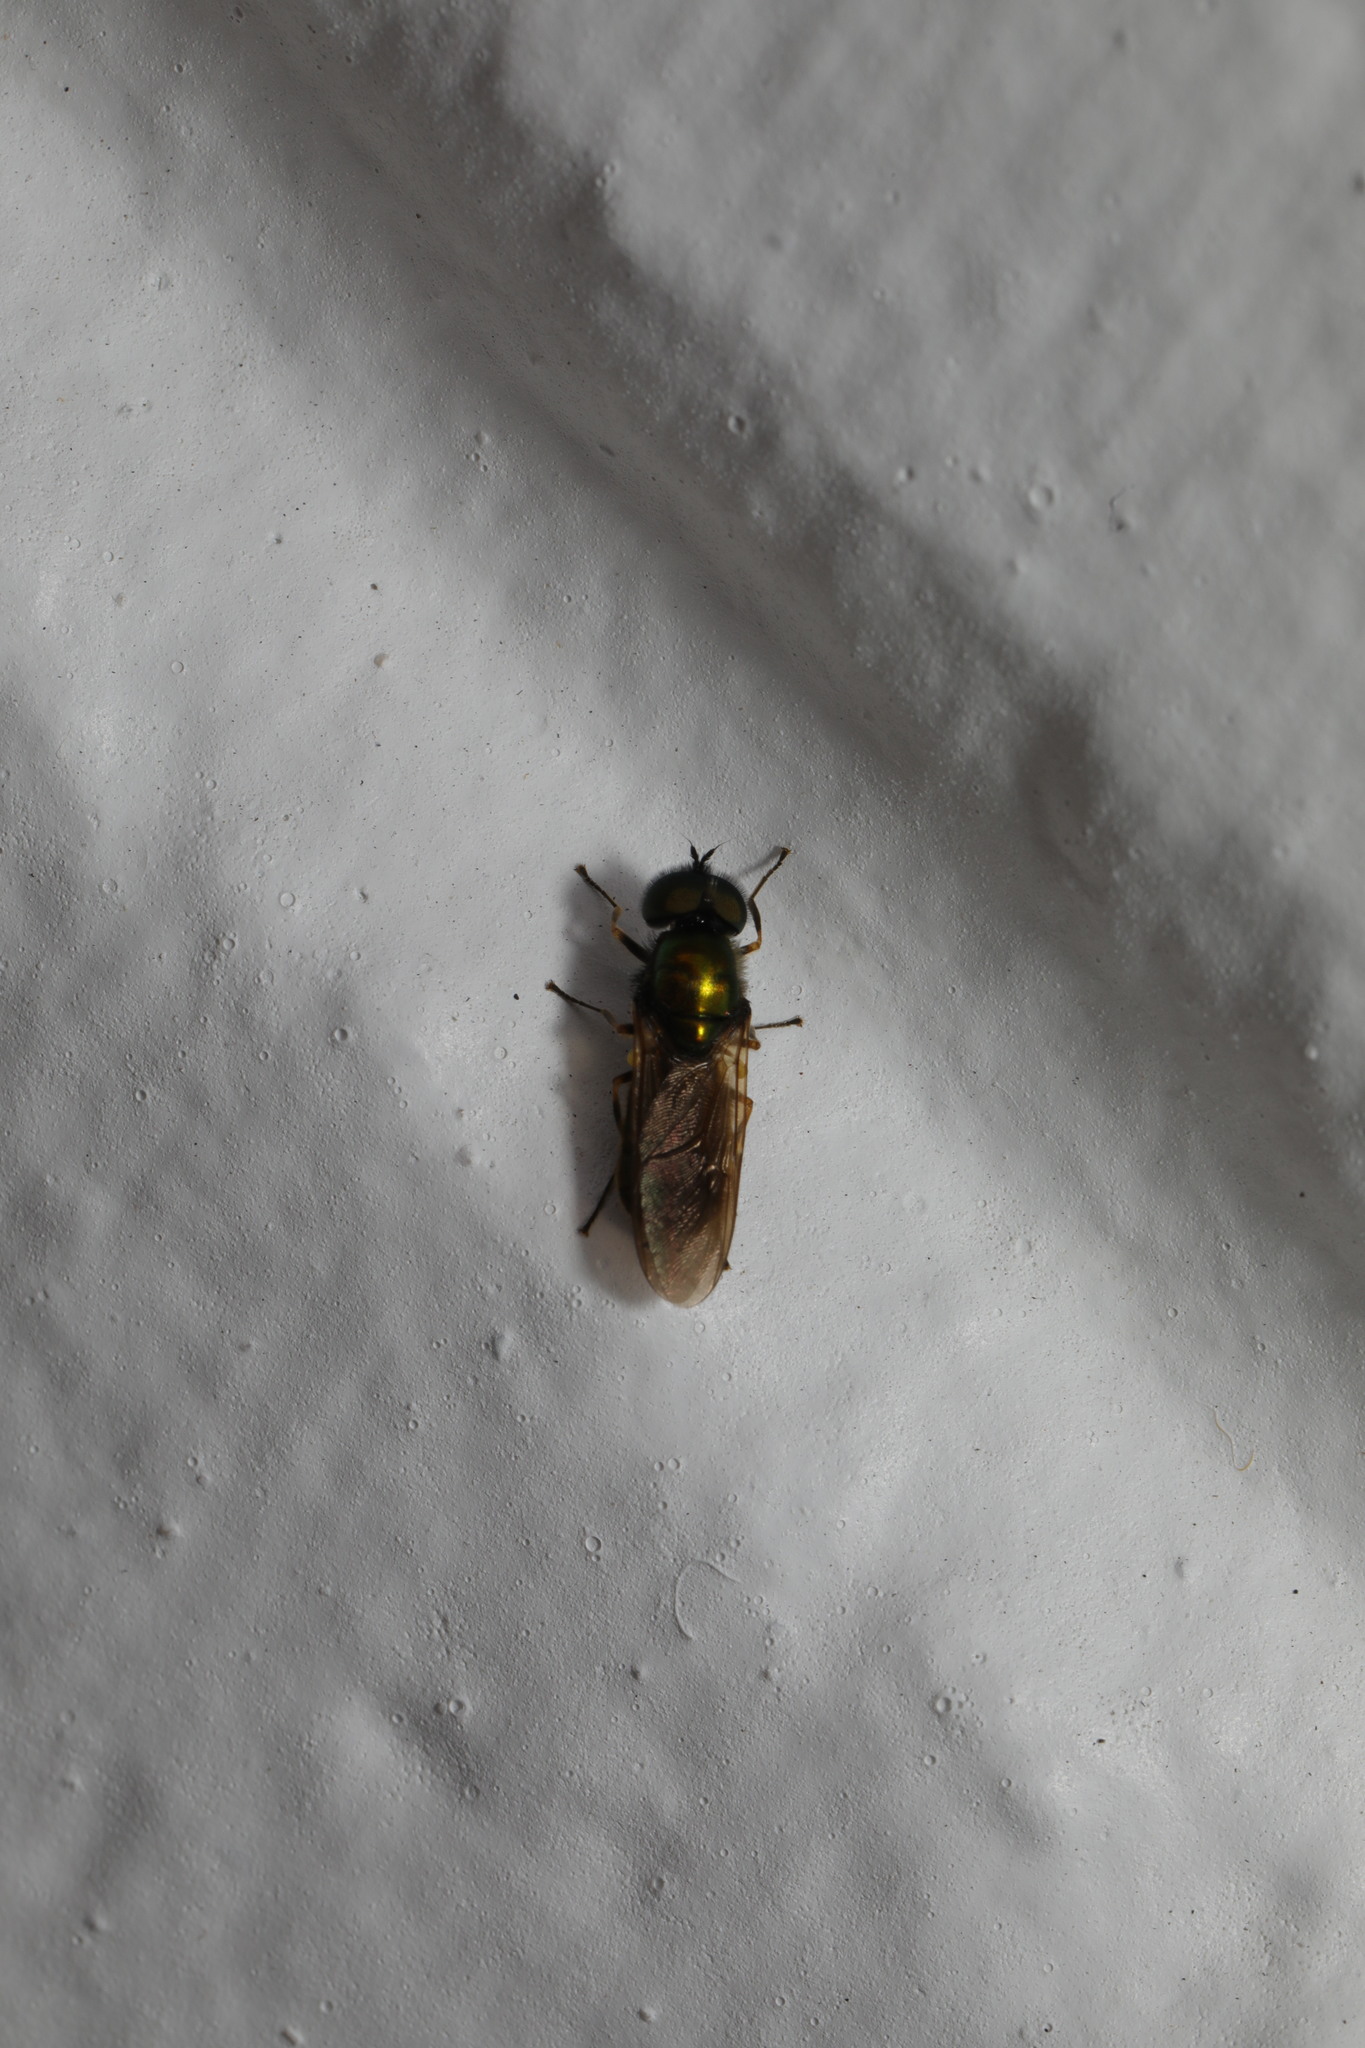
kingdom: Animalia
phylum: Arthropoda
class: Insecta
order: Diptera
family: Stratiomyidae
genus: Chloromyia
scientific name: Chloromyia formosa
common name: Soldier fly
